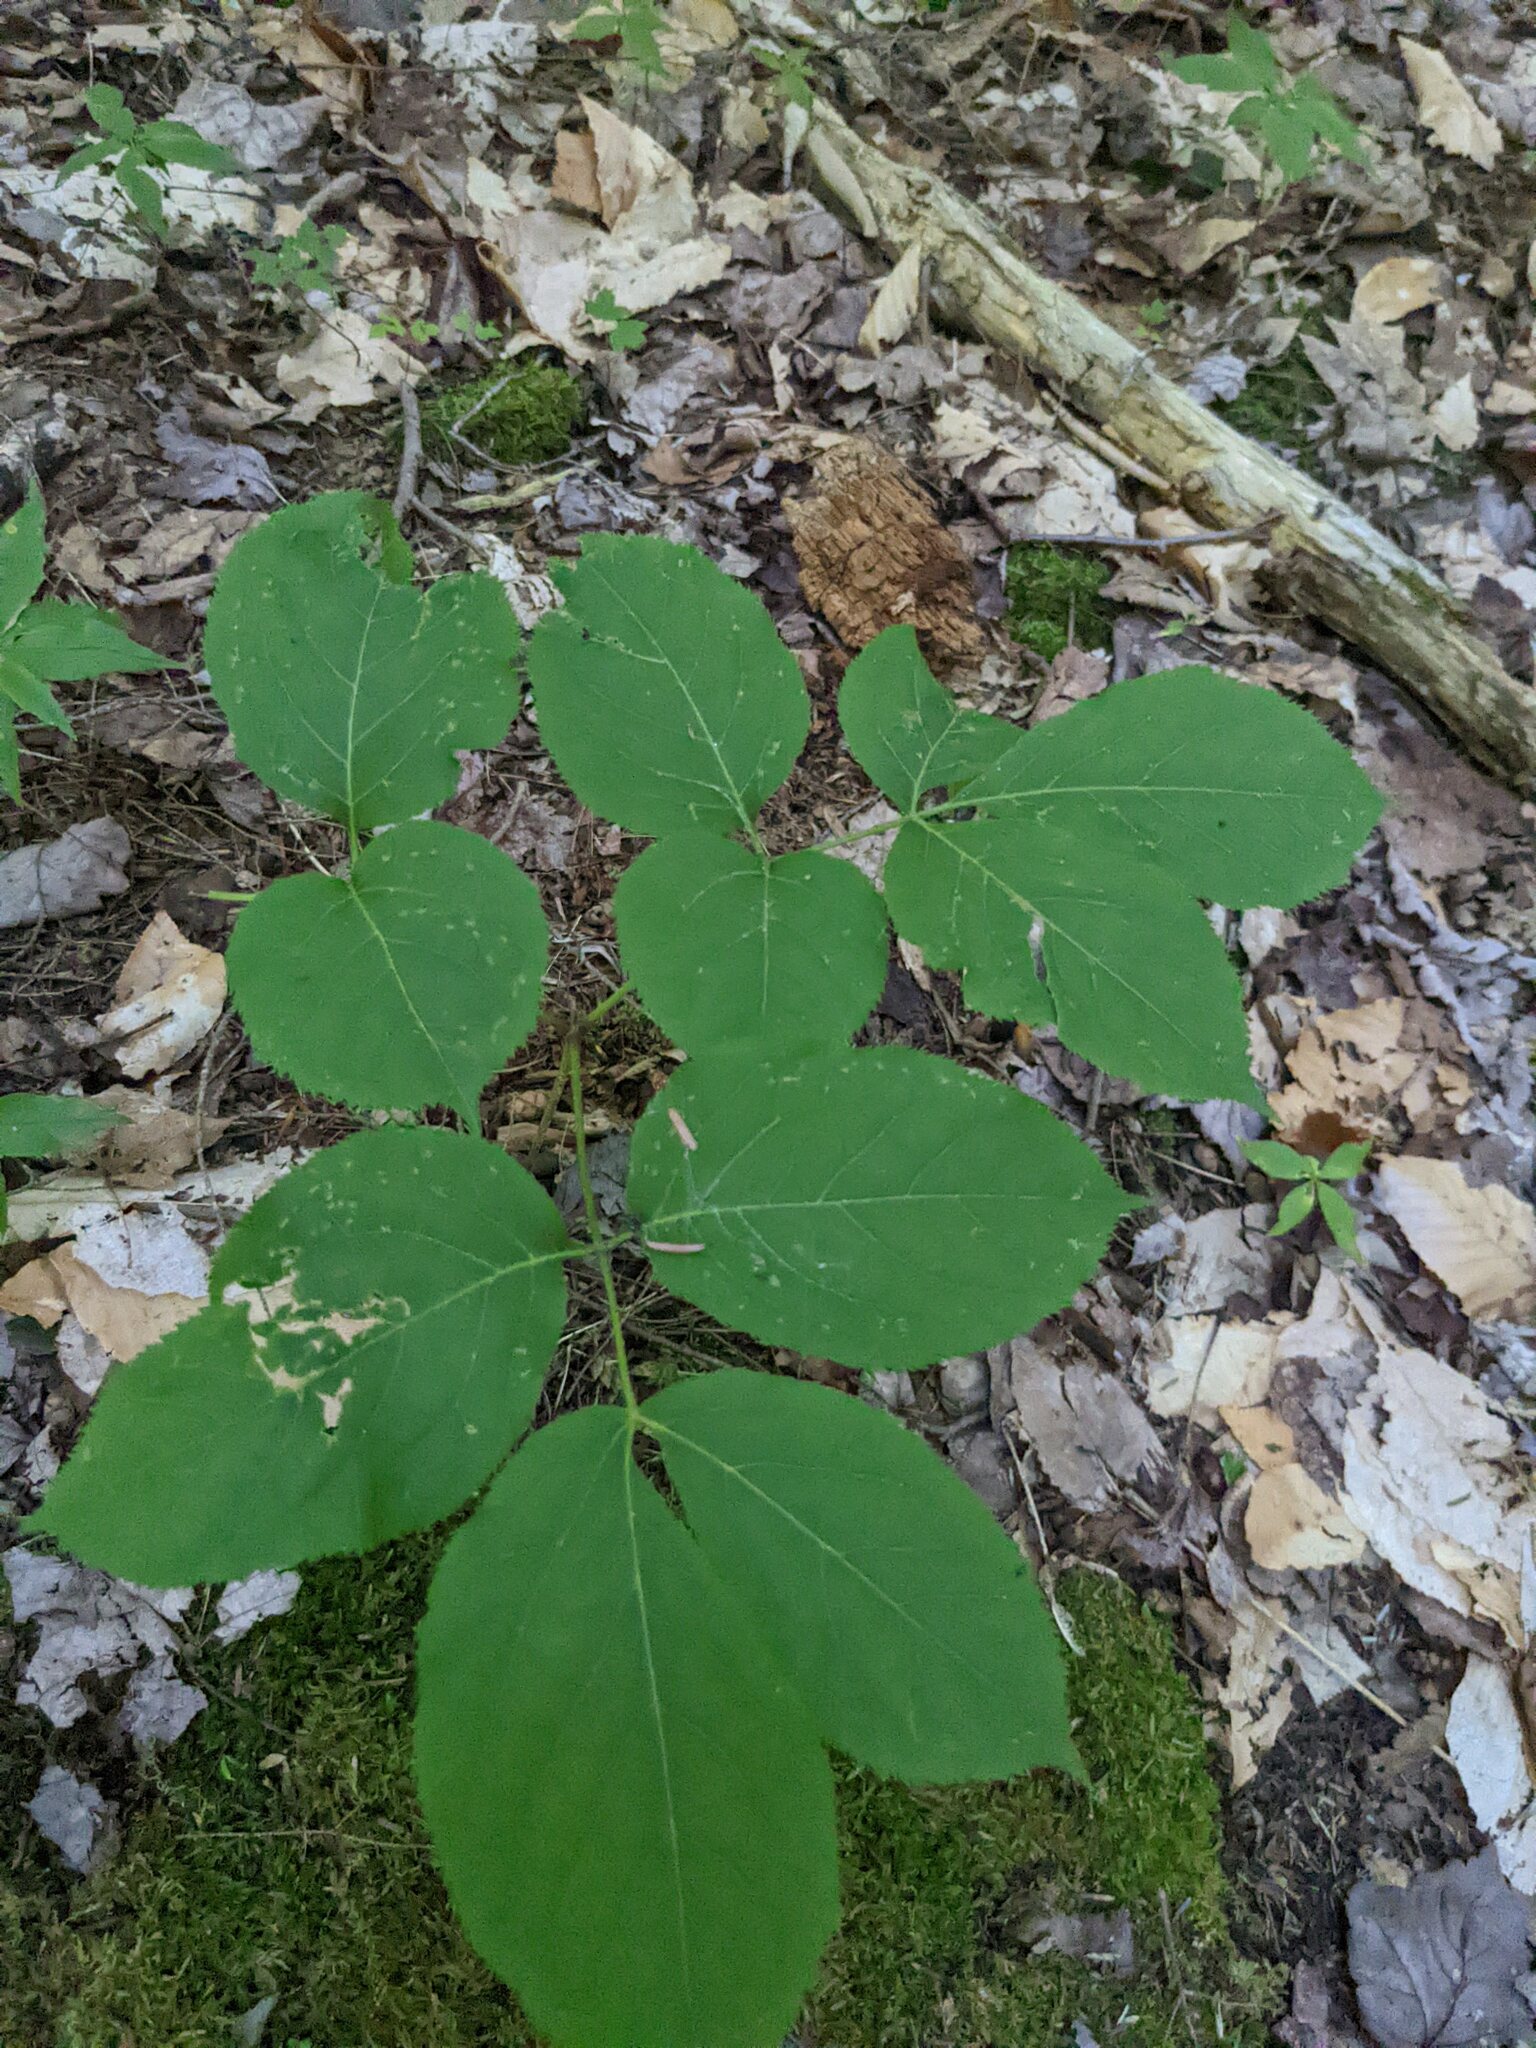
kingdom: Plantae
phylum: Tracheophyta
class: Magnoliopsida
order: Apiales
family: Araliaceae
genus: Aralia
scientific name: Aralia nudicaulis
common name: Wild sarsaparilla
